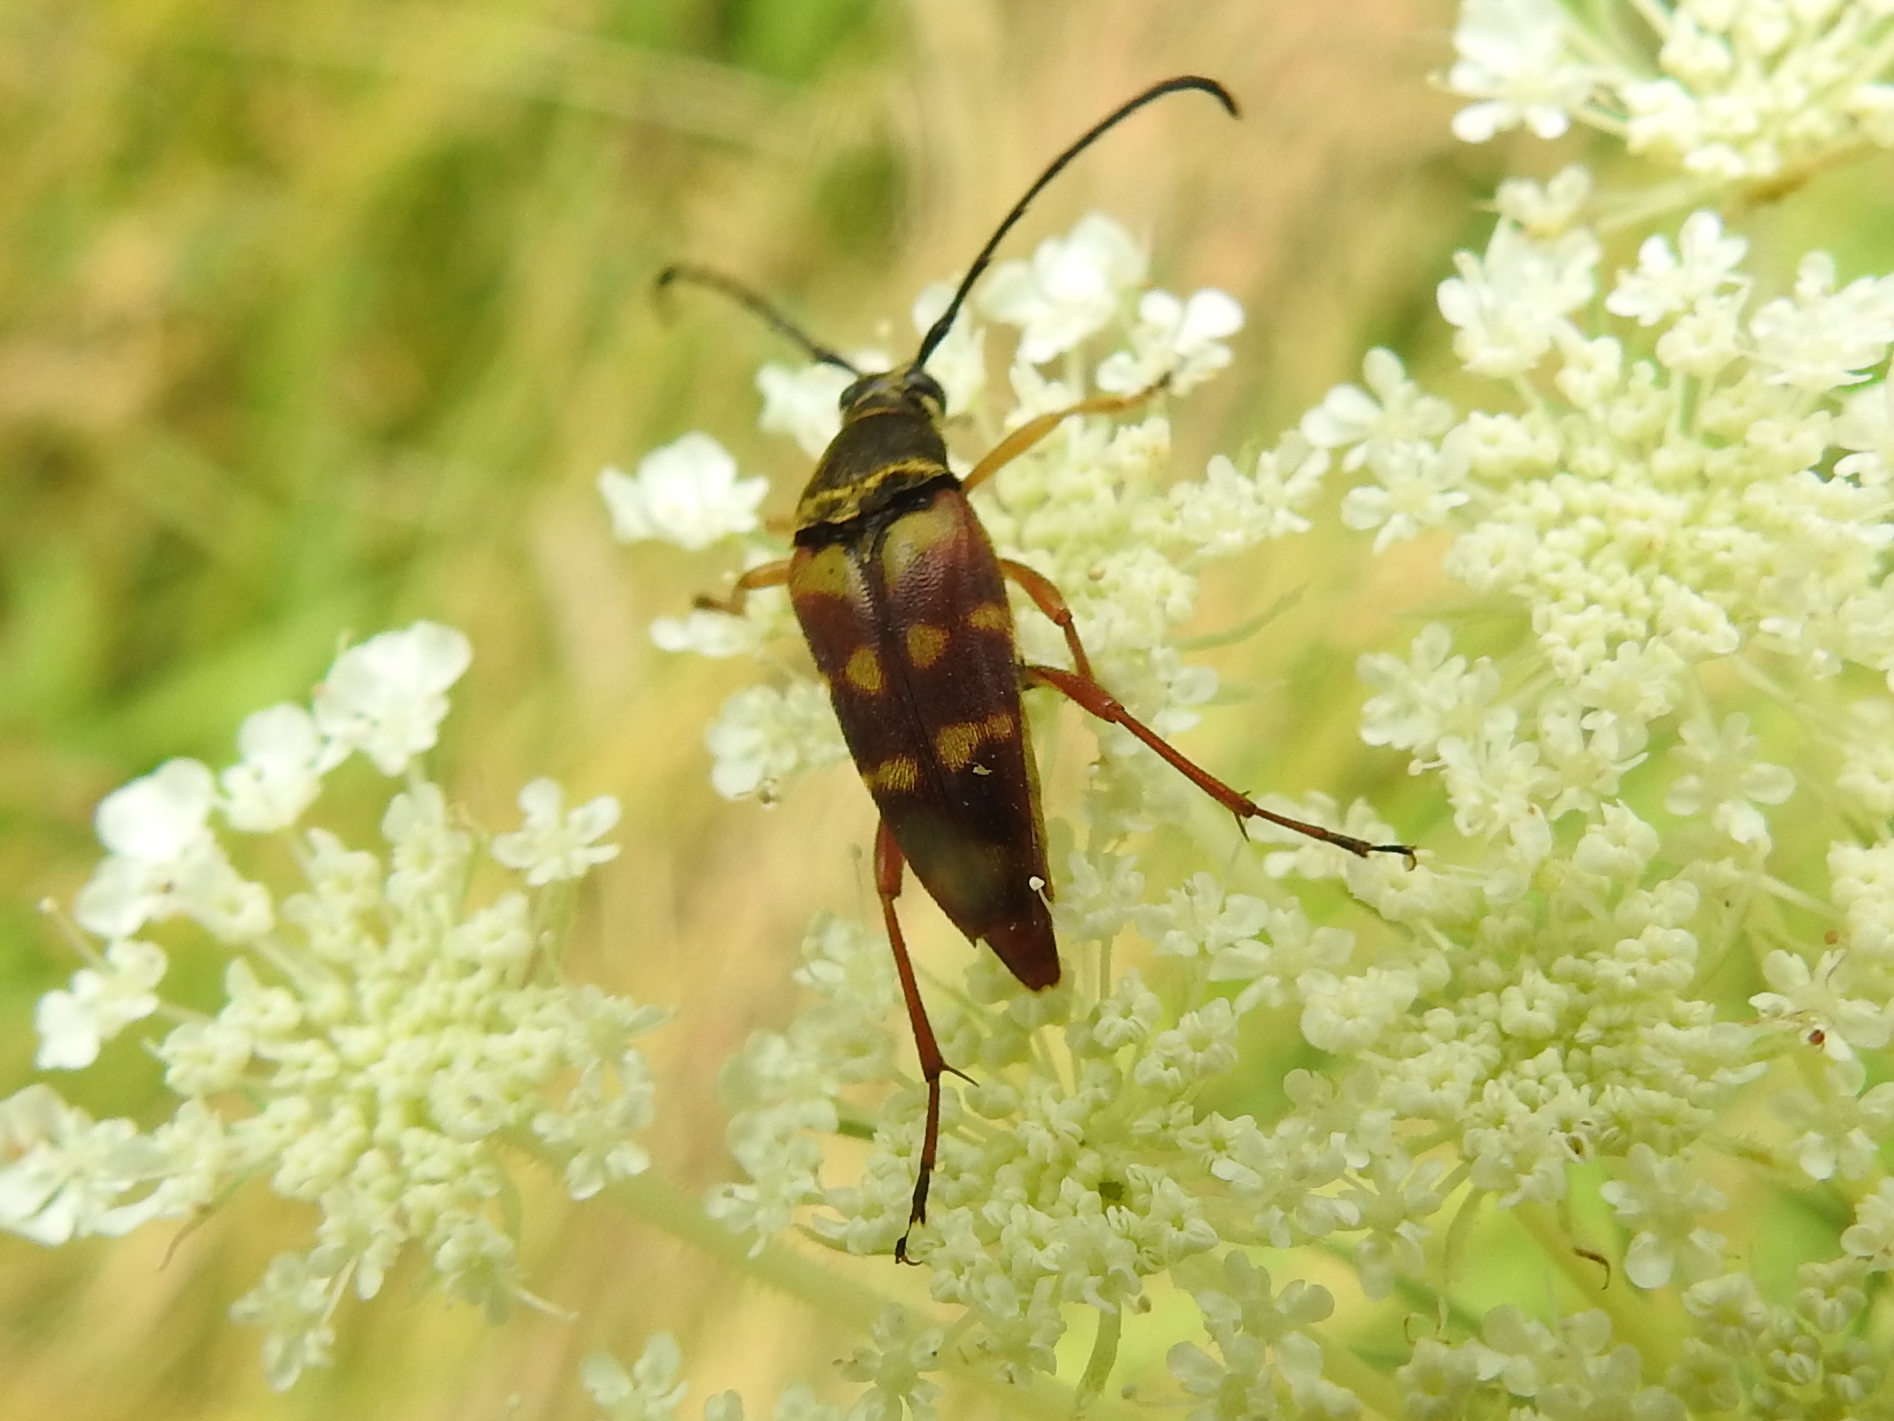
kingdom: Animalia
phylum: Arthropoda
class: Insecta
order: Coleoptera
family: Cerambycidae
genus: Typocerus
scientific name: Typocerus velutinus
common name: Banded longhorn beetle
